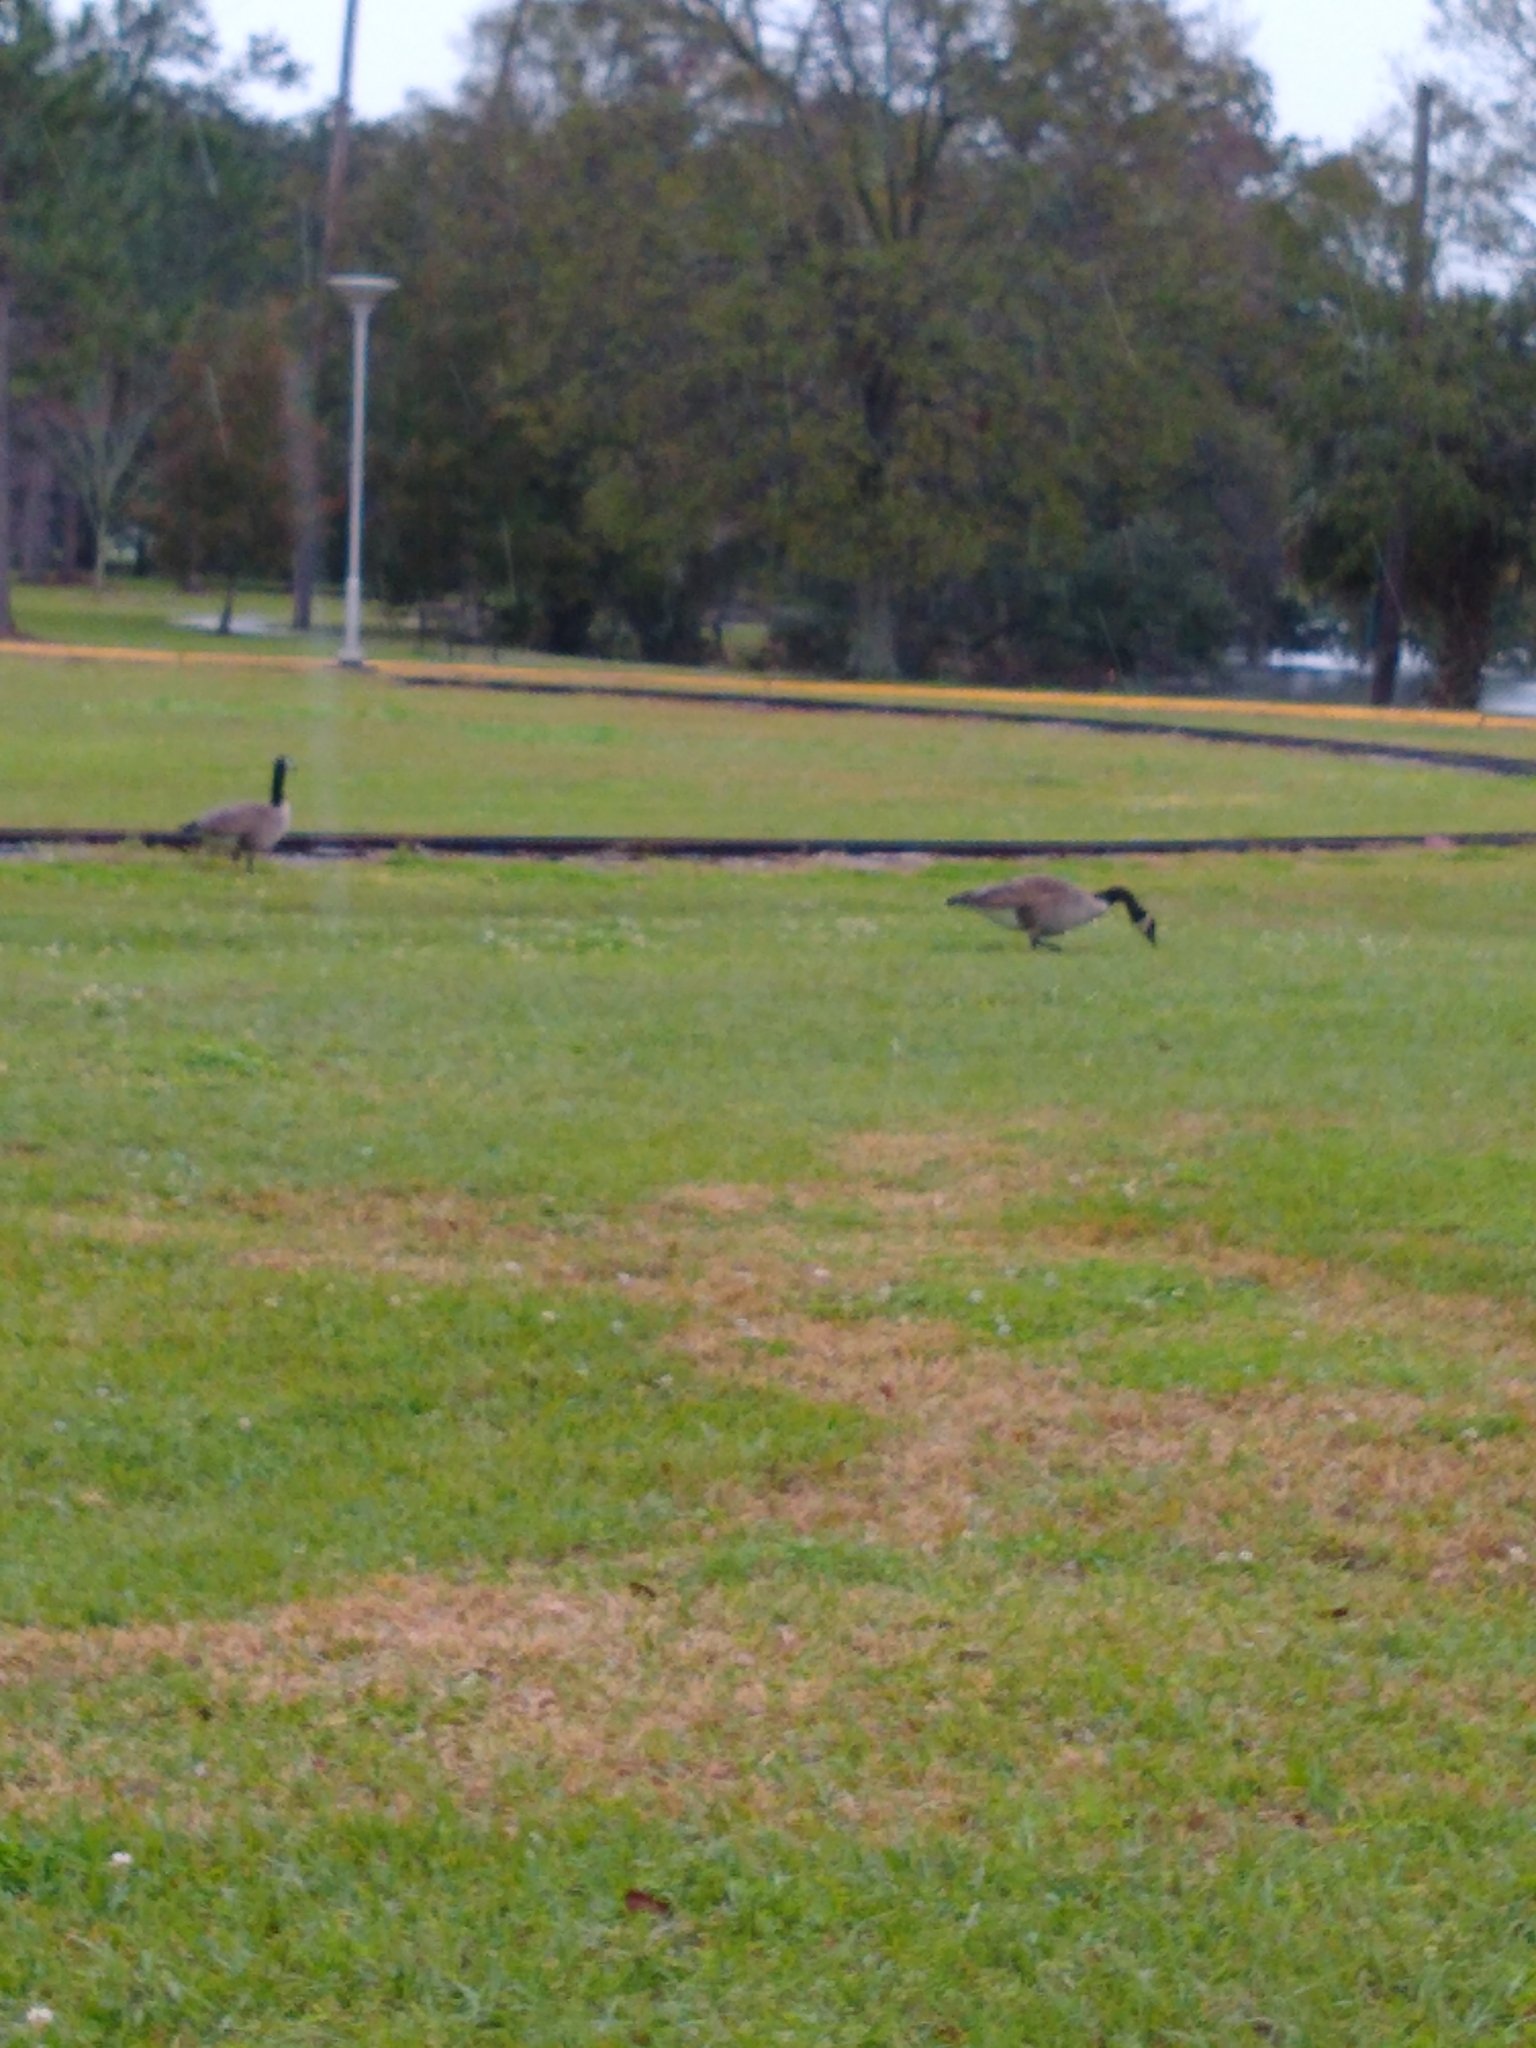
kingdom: Animalia
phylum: Chordata
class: Aves
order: Anseriformes
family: Anatidae
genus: Branta
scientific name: Branta canadensis
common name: Canada goose
